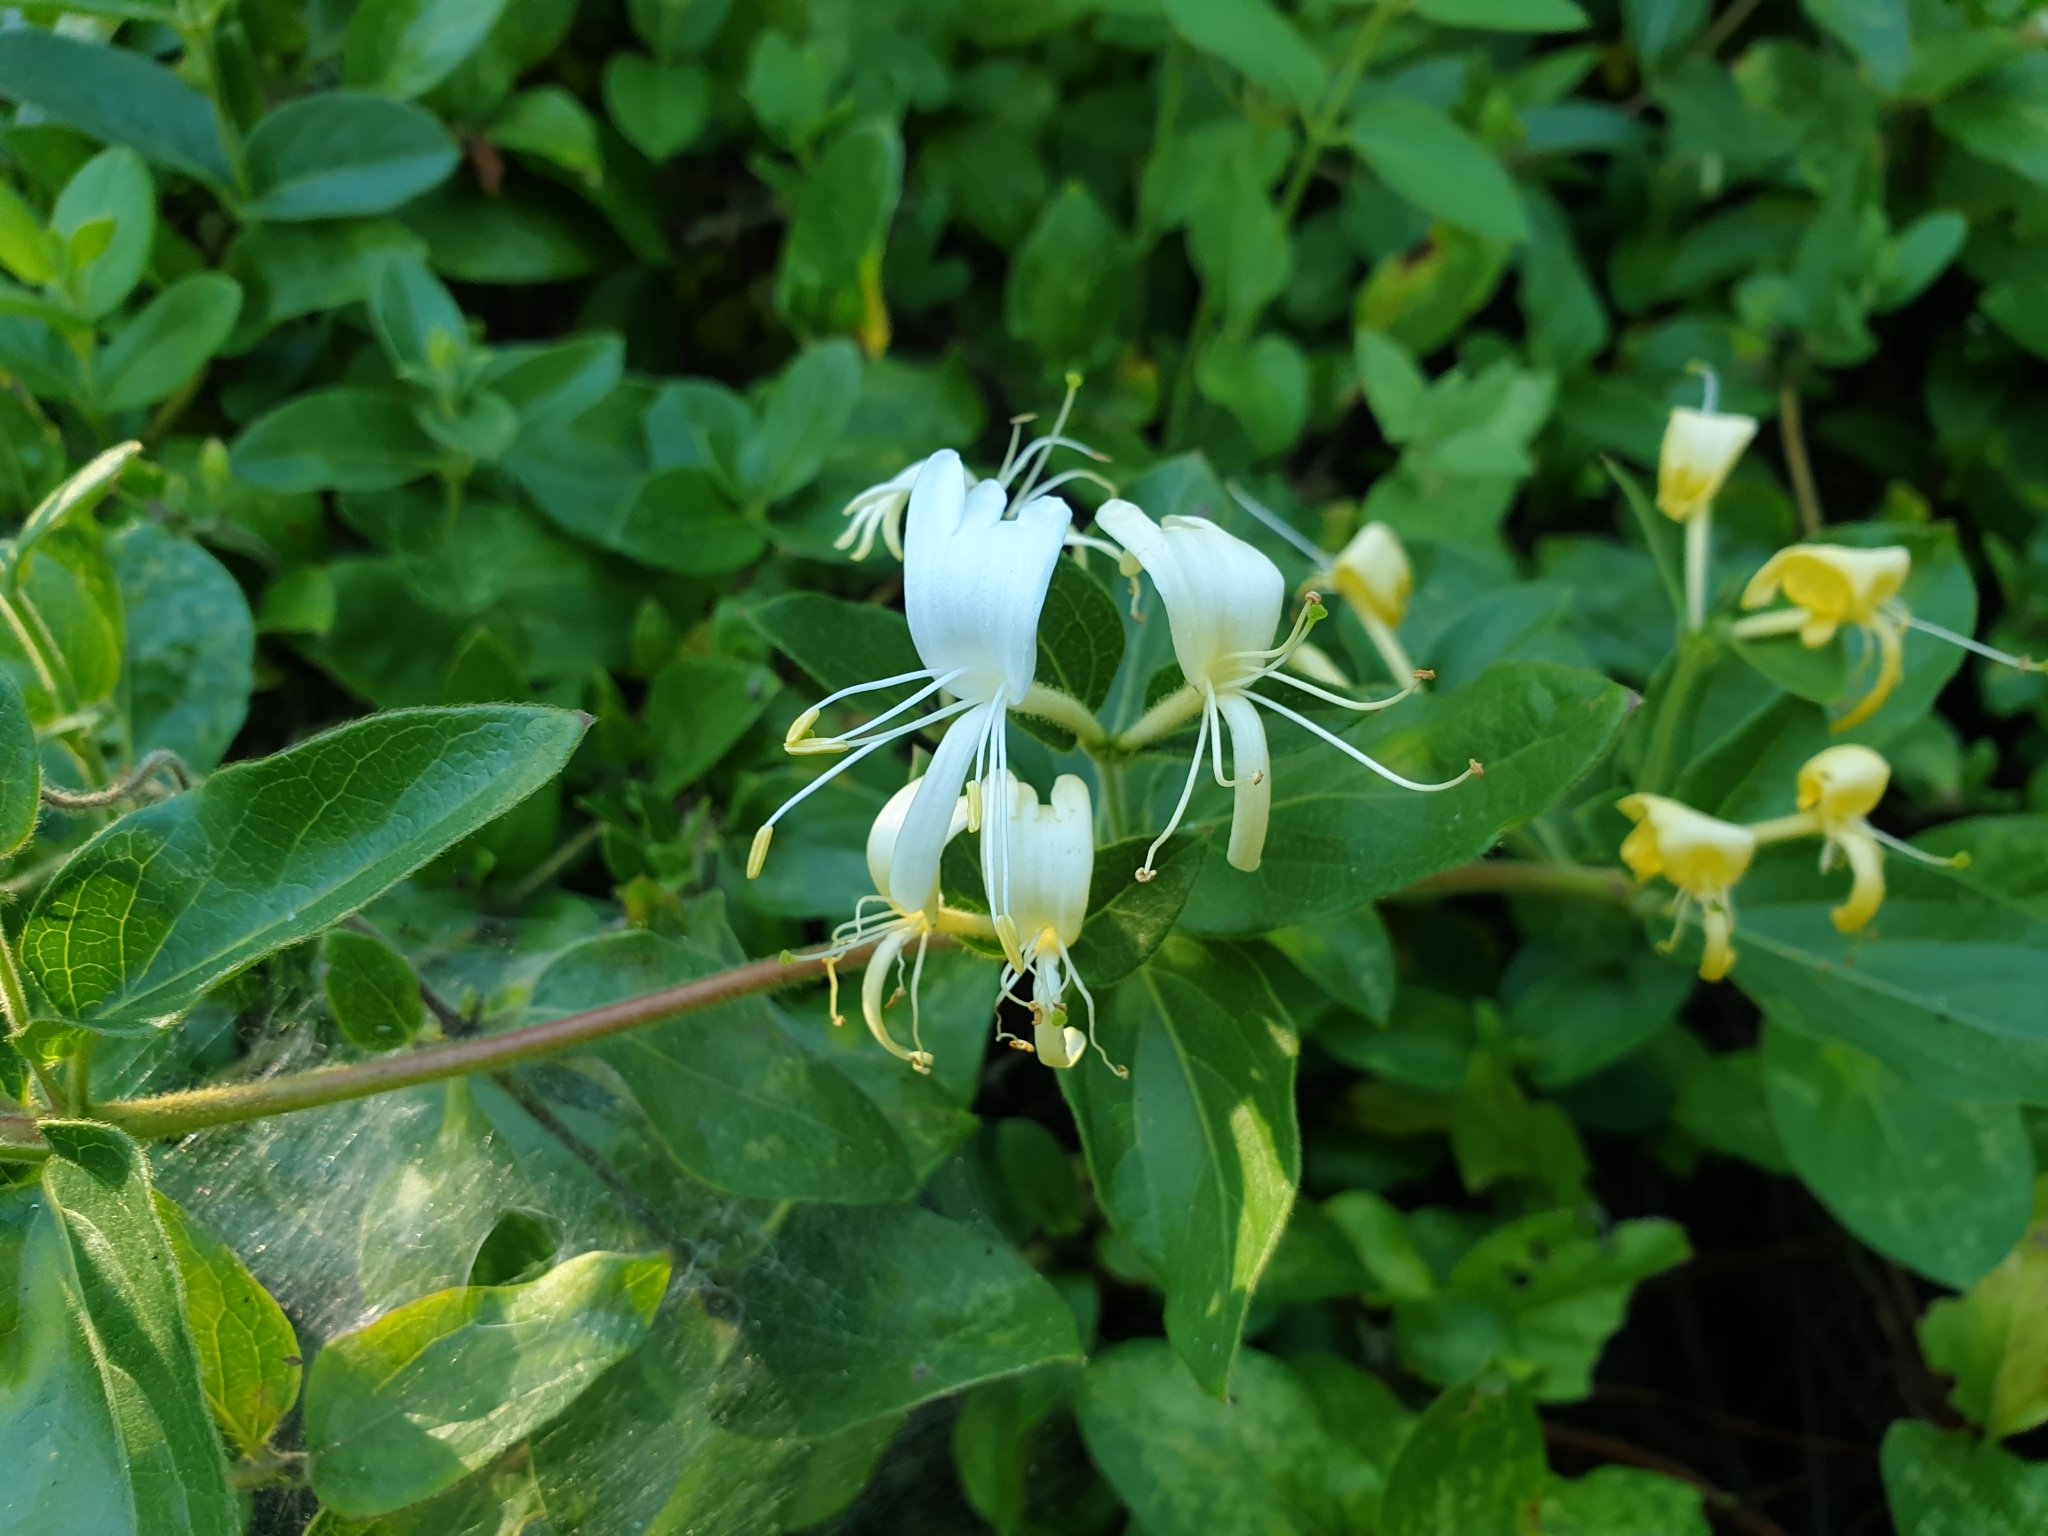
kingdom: Plantae
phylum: Tracheophyta
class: Magnoliopsida
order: Dipsacales
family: Caprifoliaceae
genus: Lonicera
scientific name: Lonicera japonica
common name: Japanese honeysuckle
